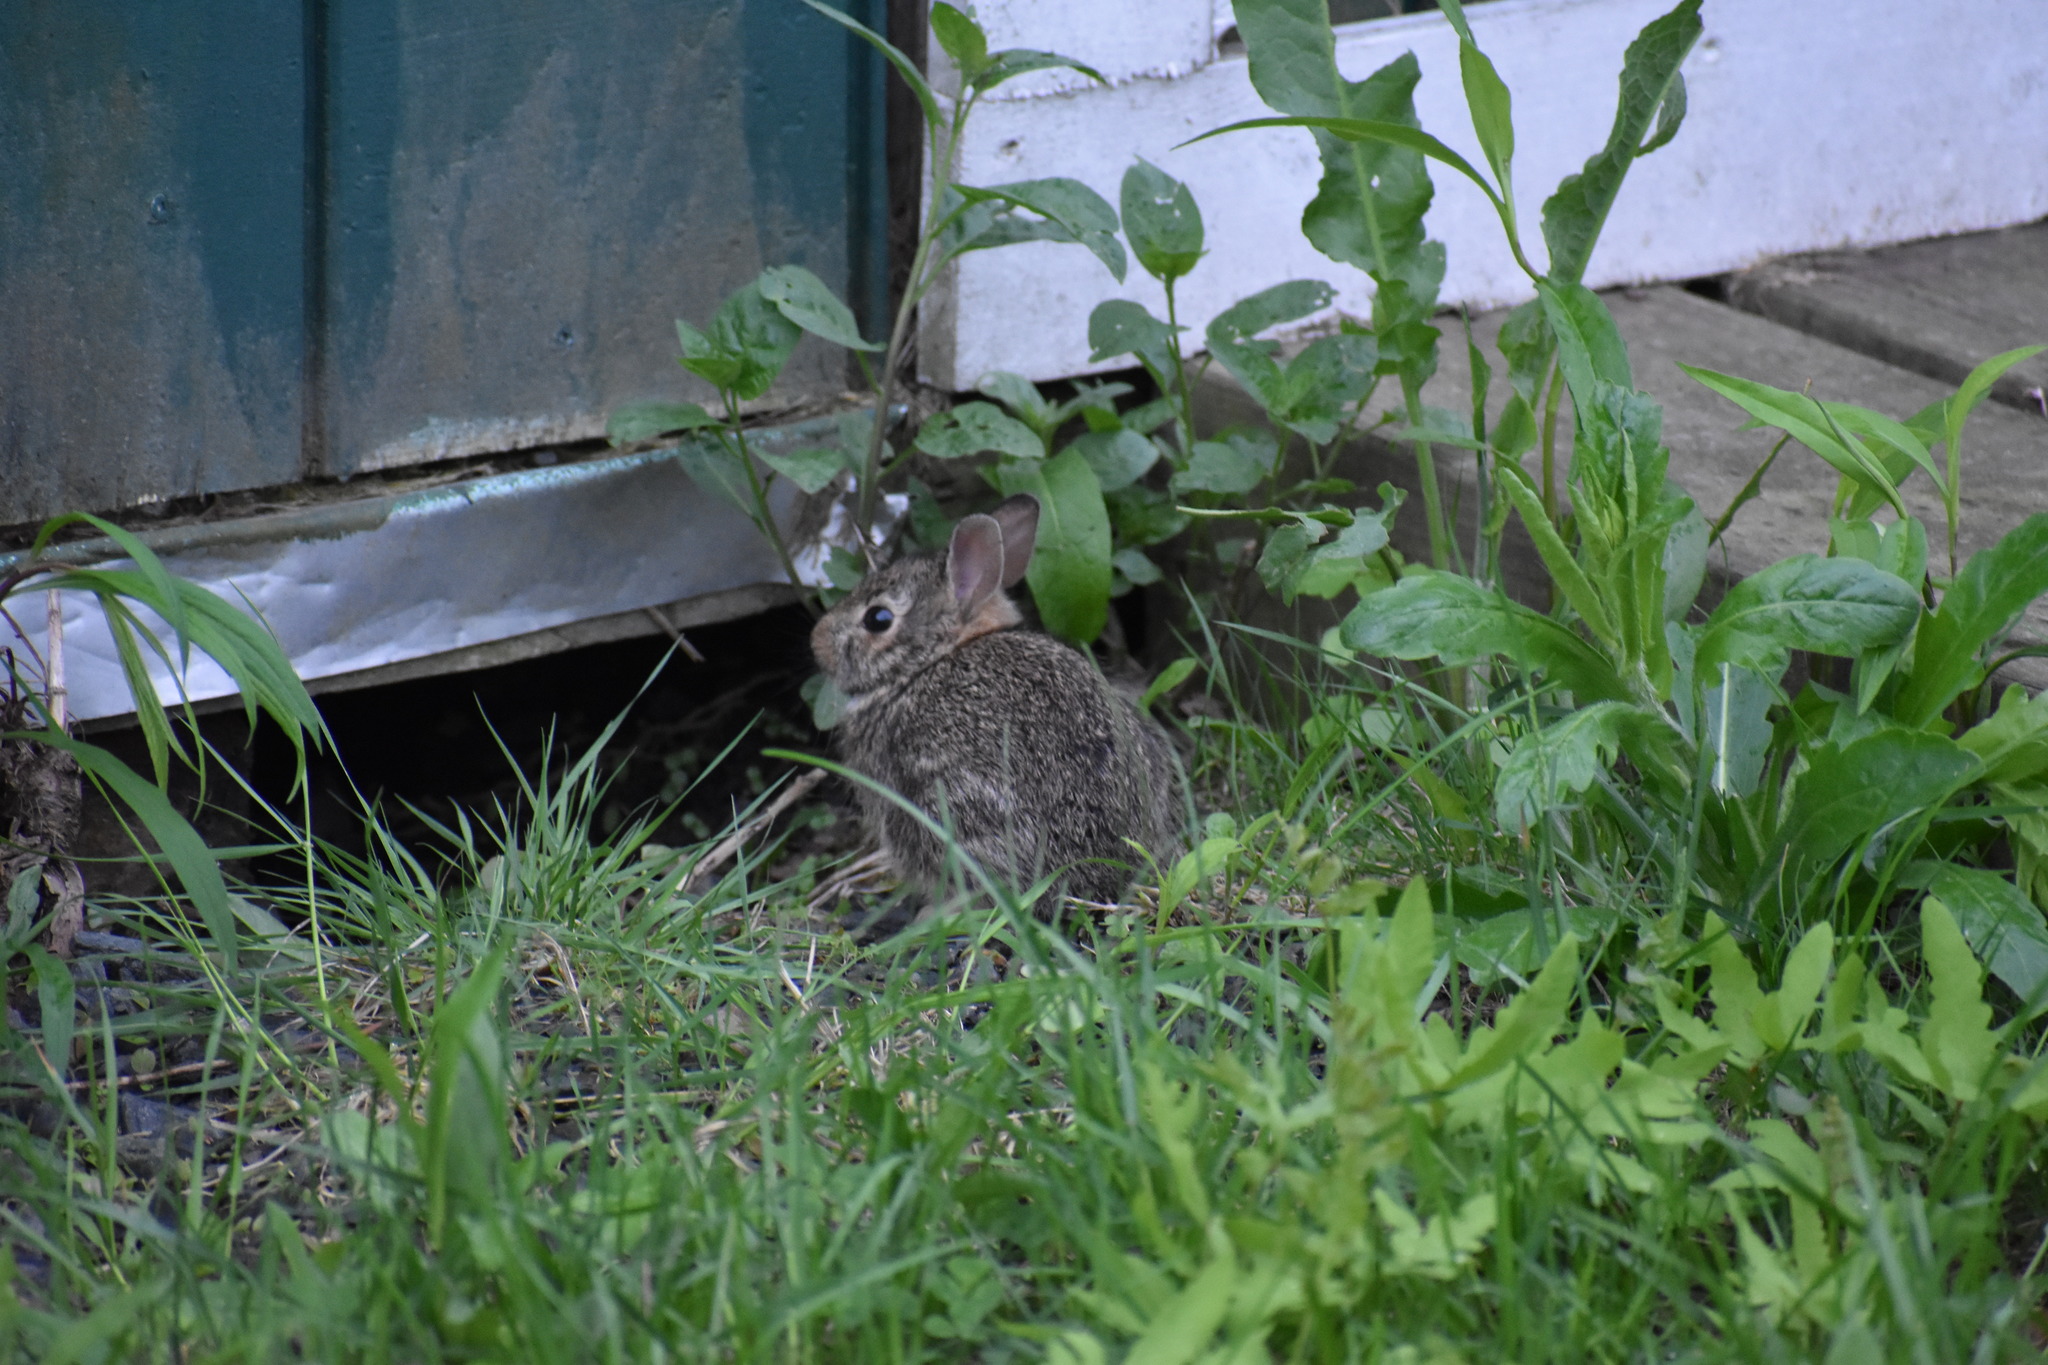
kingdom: Animalia
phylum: Chordata
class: Mammalia
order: Lagomorpha
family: Leporidae
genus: Sylvilagus
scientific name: Sylvilagus floridanus
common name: Eastern cottontail
